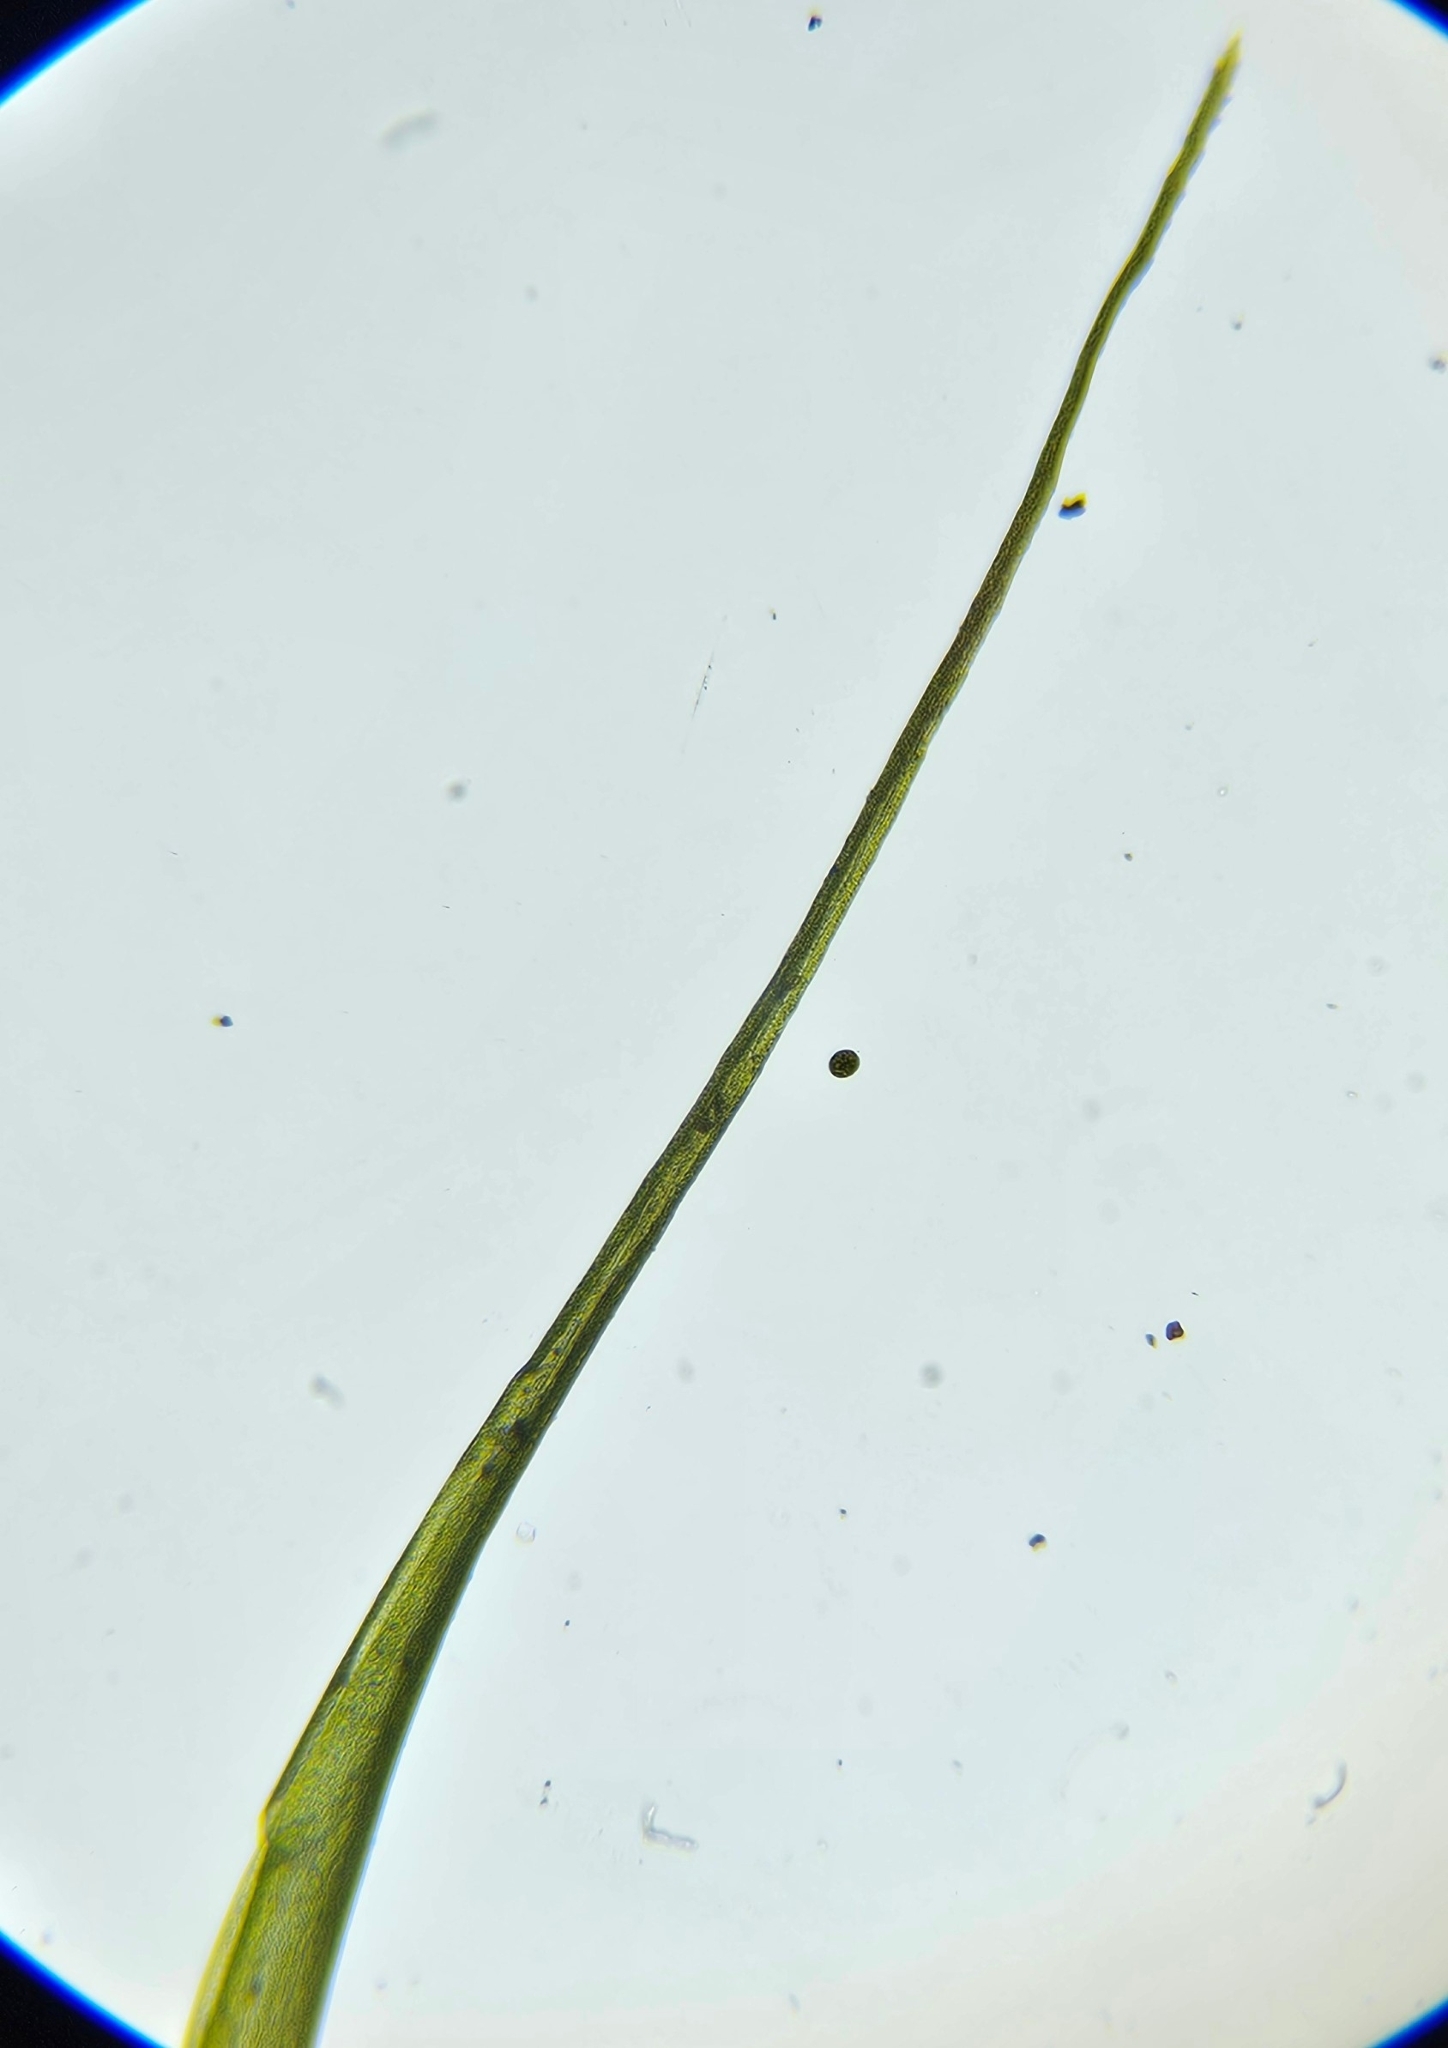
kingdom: Plantae
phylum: Bryophyta
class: Bryopsida
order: Scouleriales
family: Flexitrichaceae
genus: Flexitrichum
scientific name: Flexitrichum gracile
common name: Slender ditrichum
